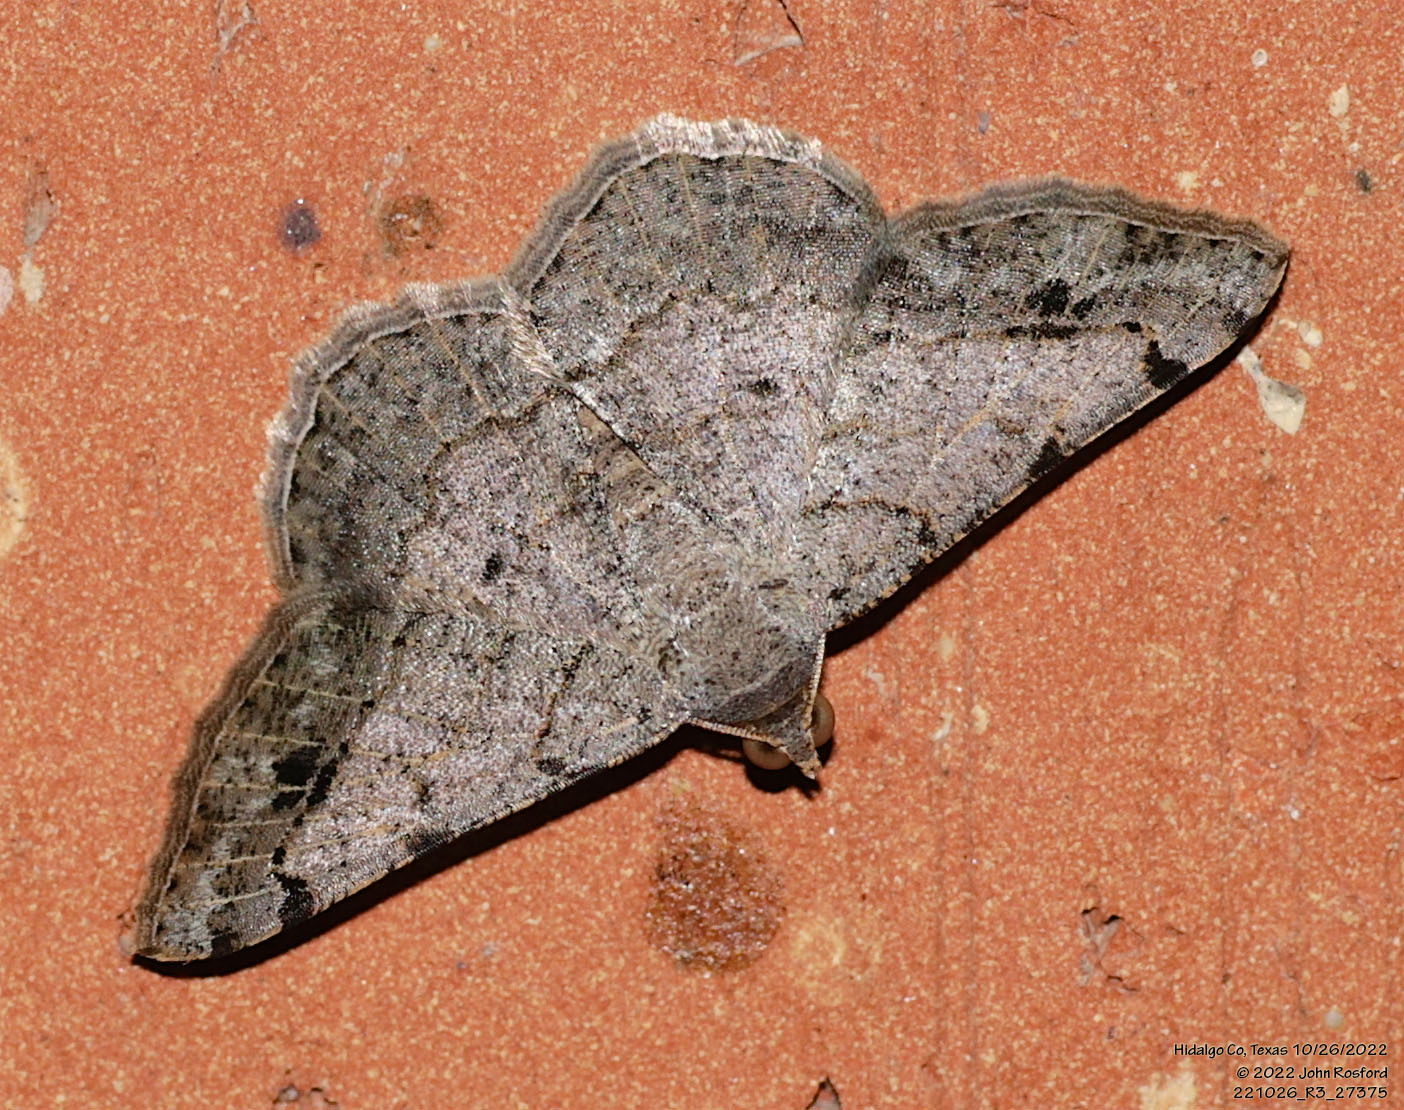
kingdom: Animalia
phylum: Arthropoda
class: Insecta
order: Lepidoptera
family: Geometridae
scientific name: Geometridae
